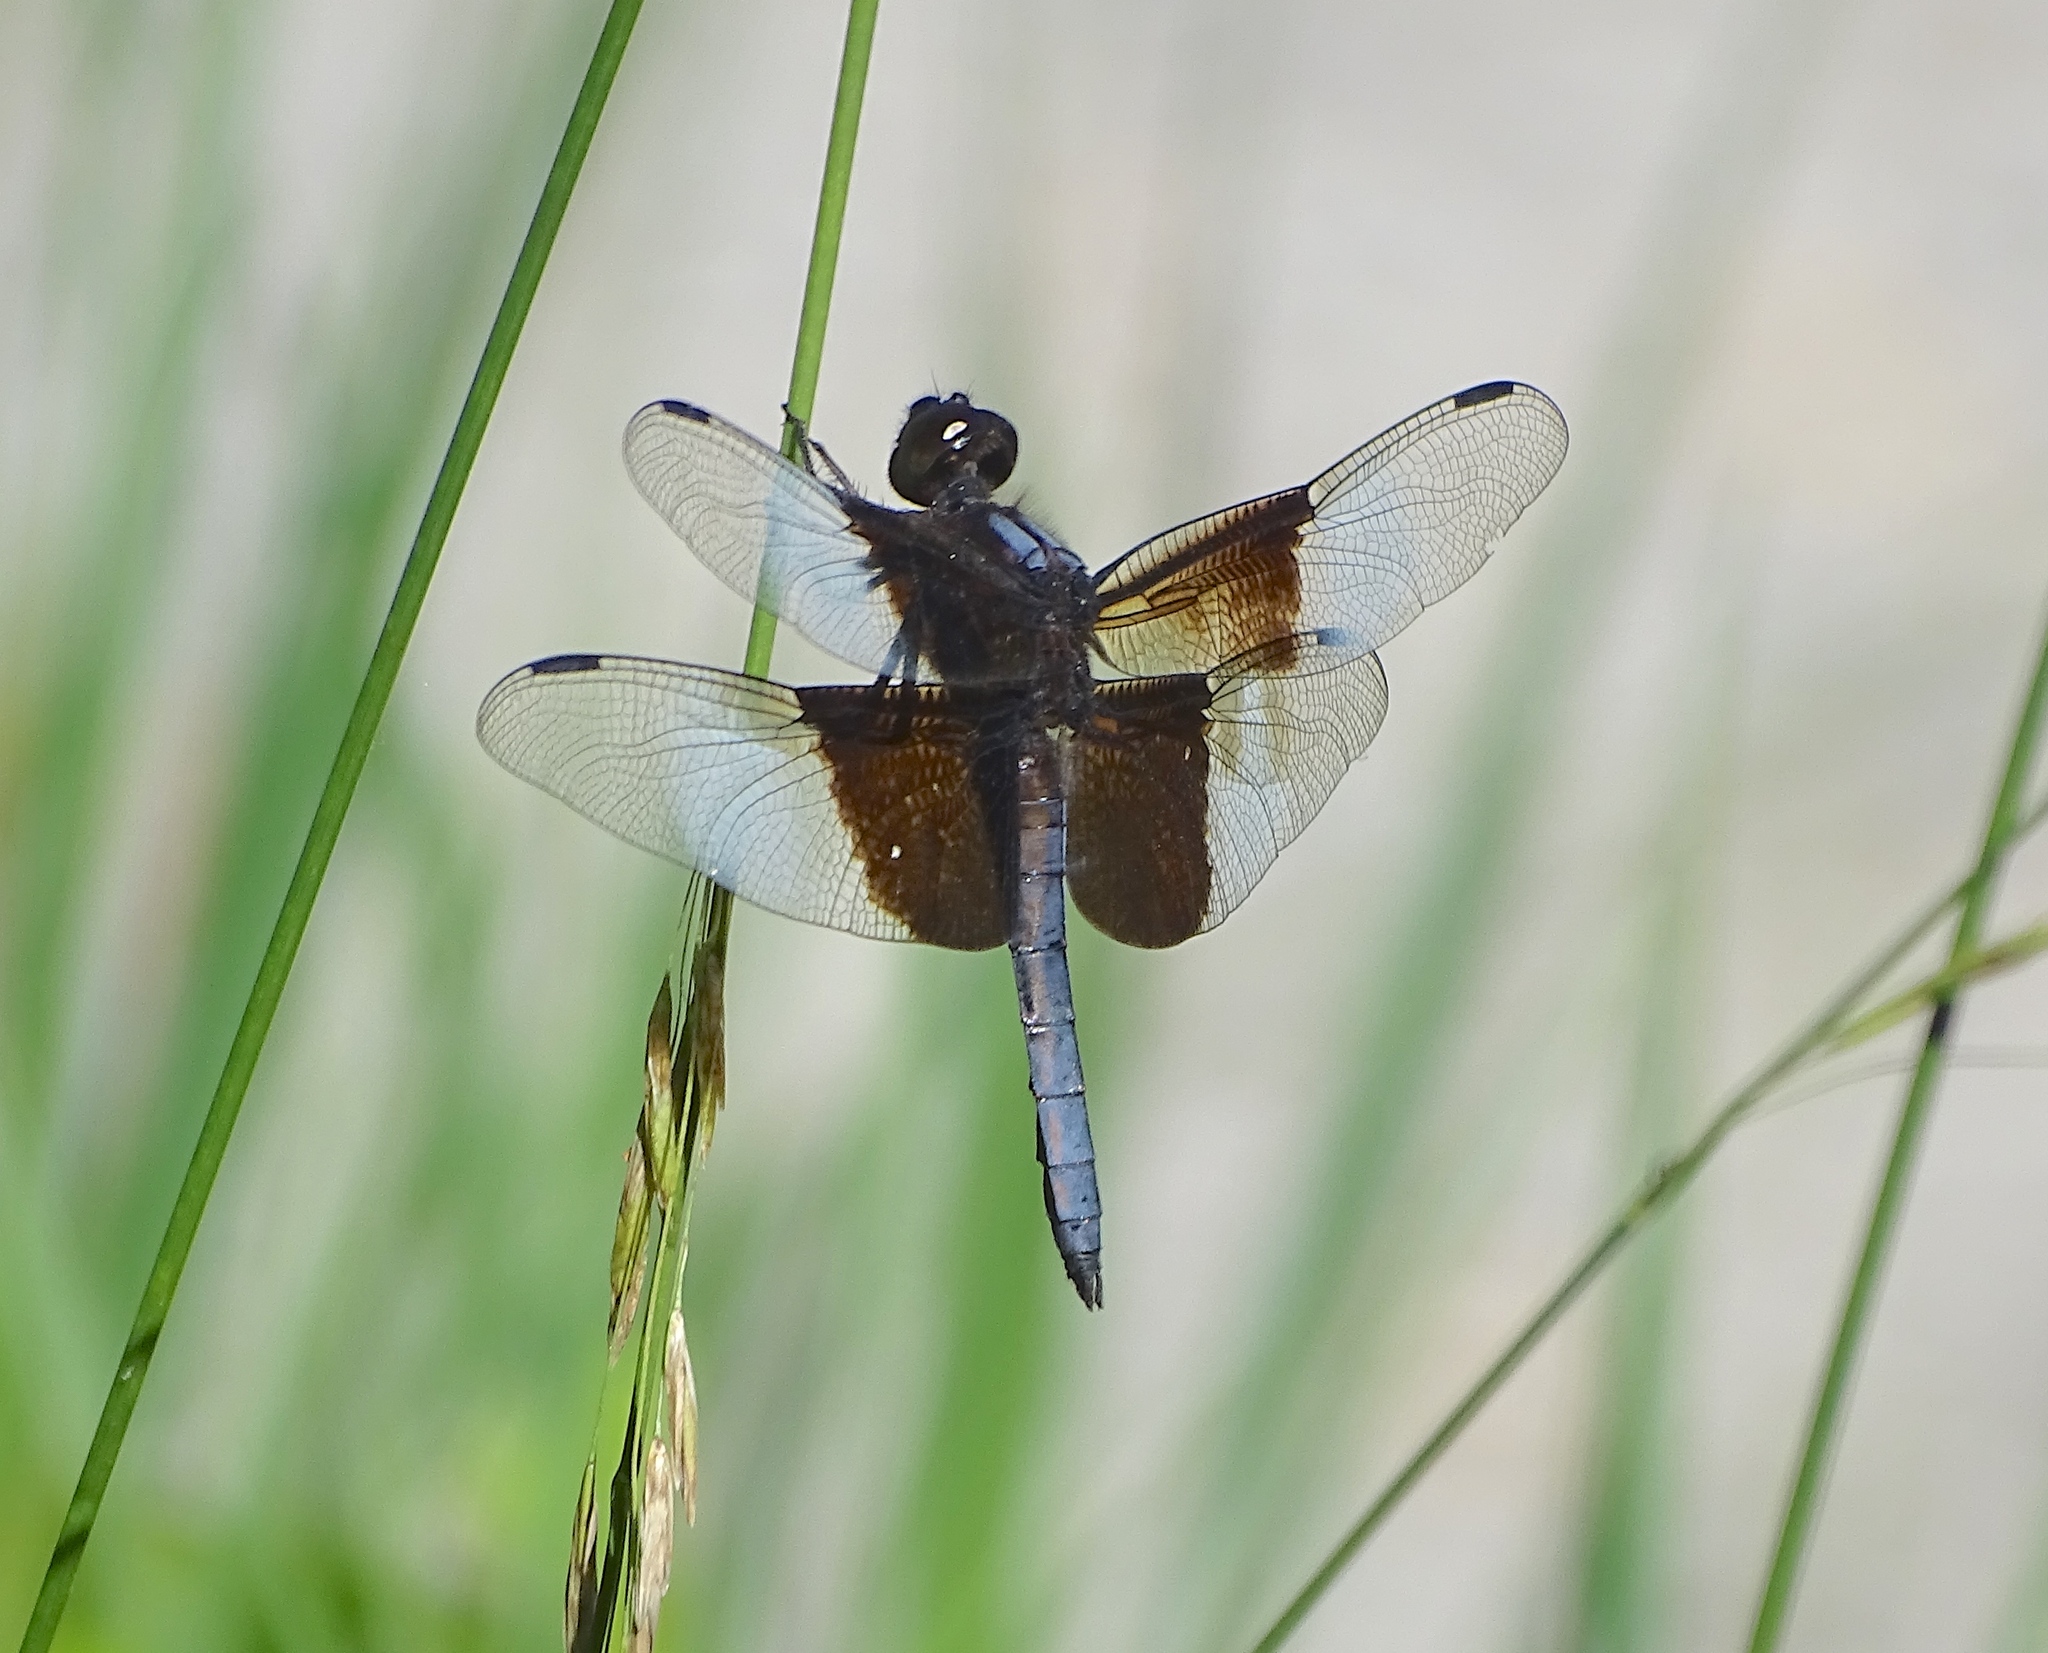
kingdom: Animalia
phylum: Arthropoda
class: Insecta
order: Odonata
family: Libellulidae
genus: Libellula
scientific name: Libellula luctuosa
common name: Widow skimmer
